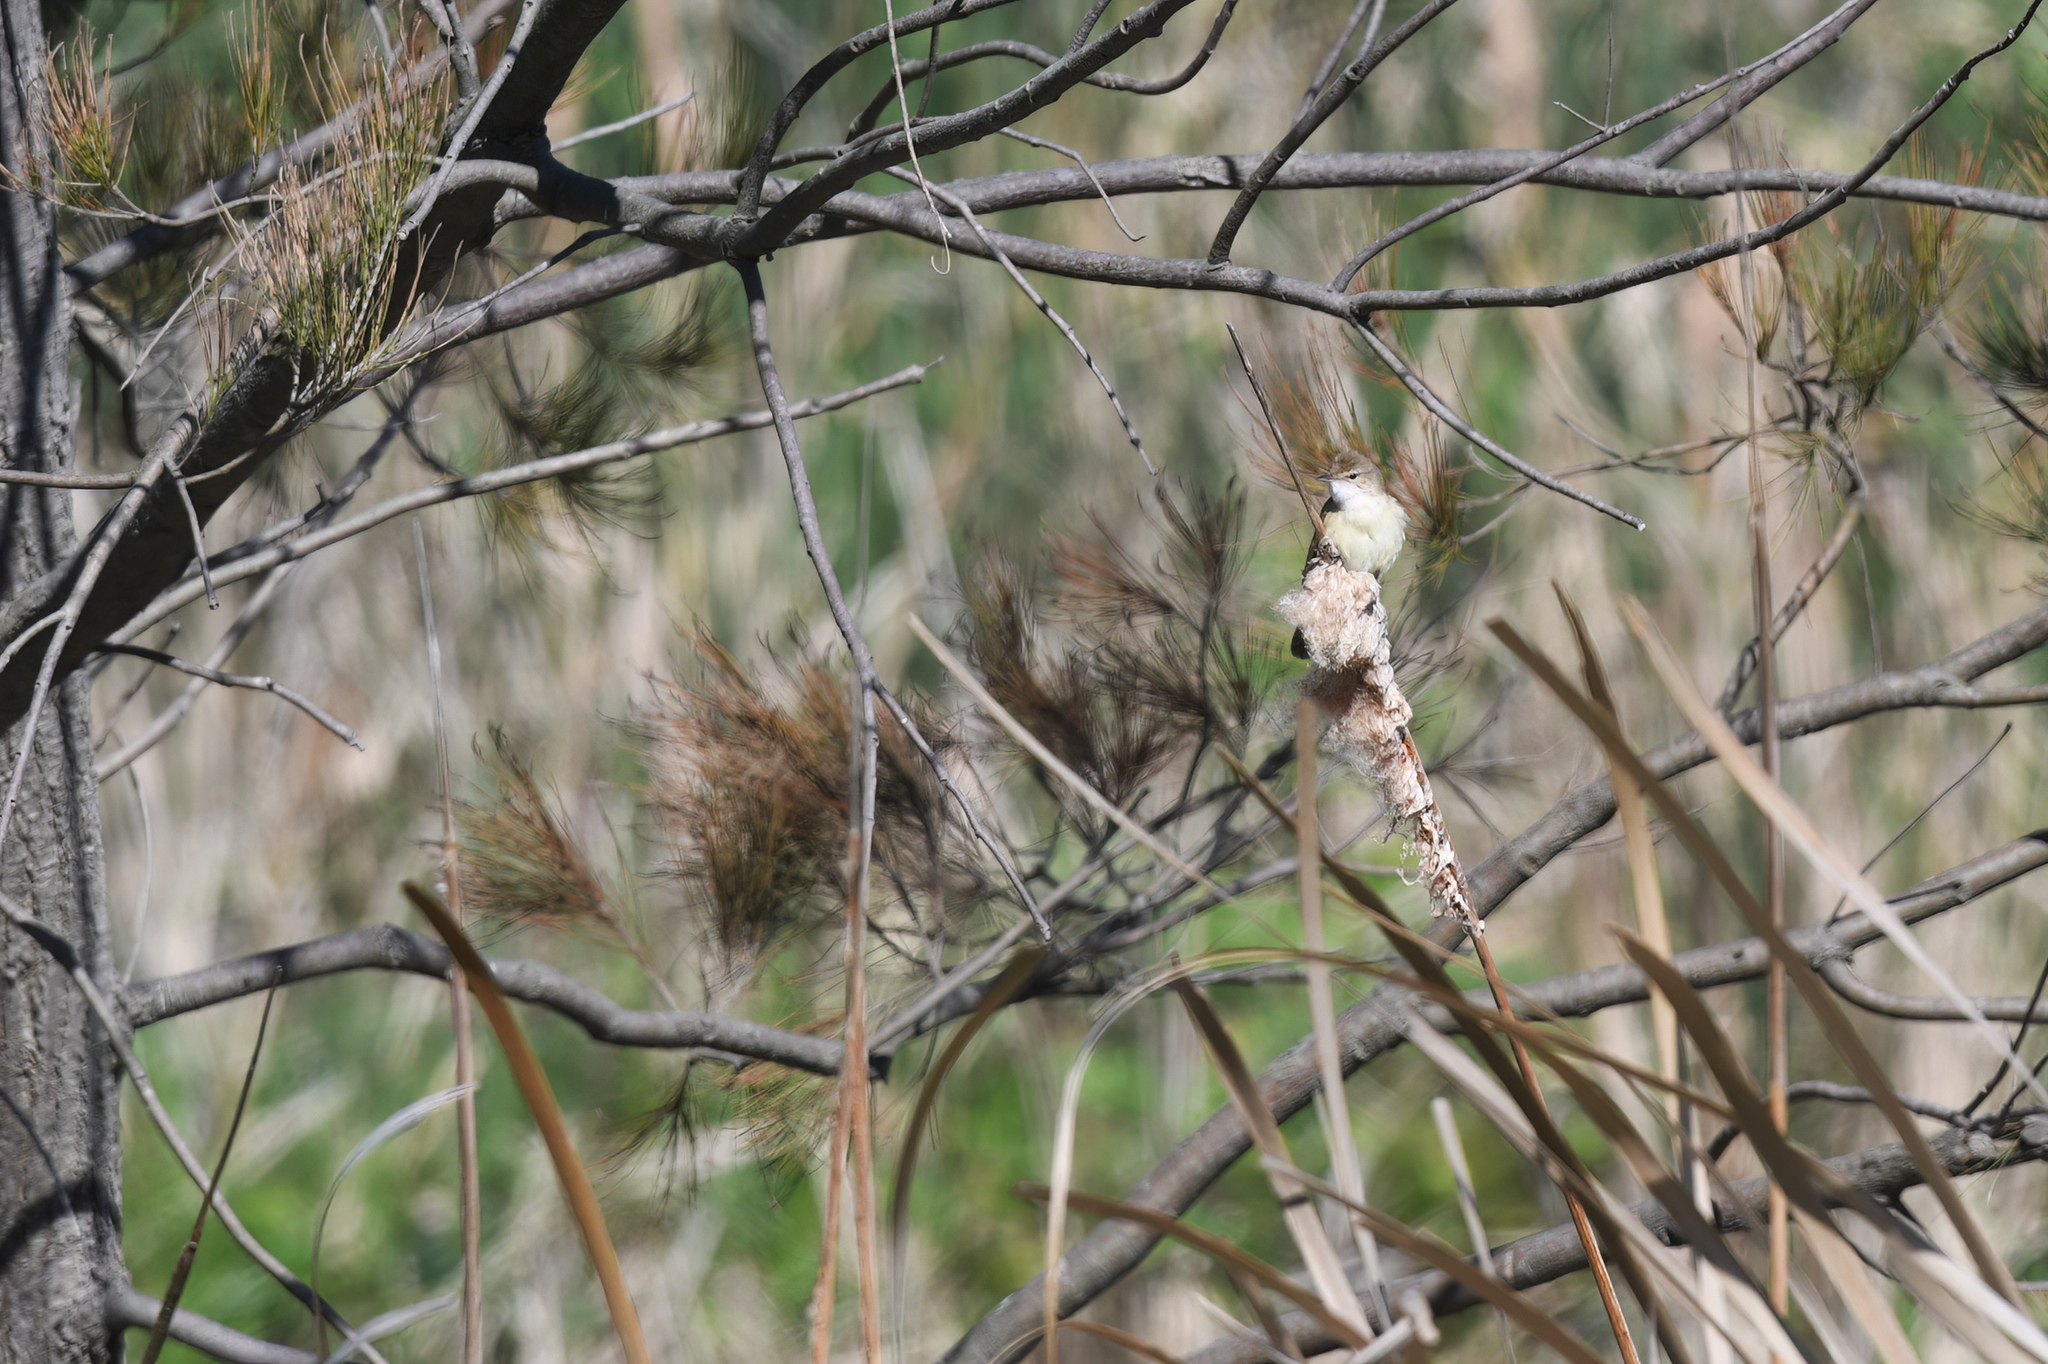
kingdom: Animalia
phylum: Chordata
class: Aves
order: Passeriformes
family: Acrocephalidae
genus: Acrocephalus
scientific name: Acrocephalus australis
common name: Australian reed warbler
